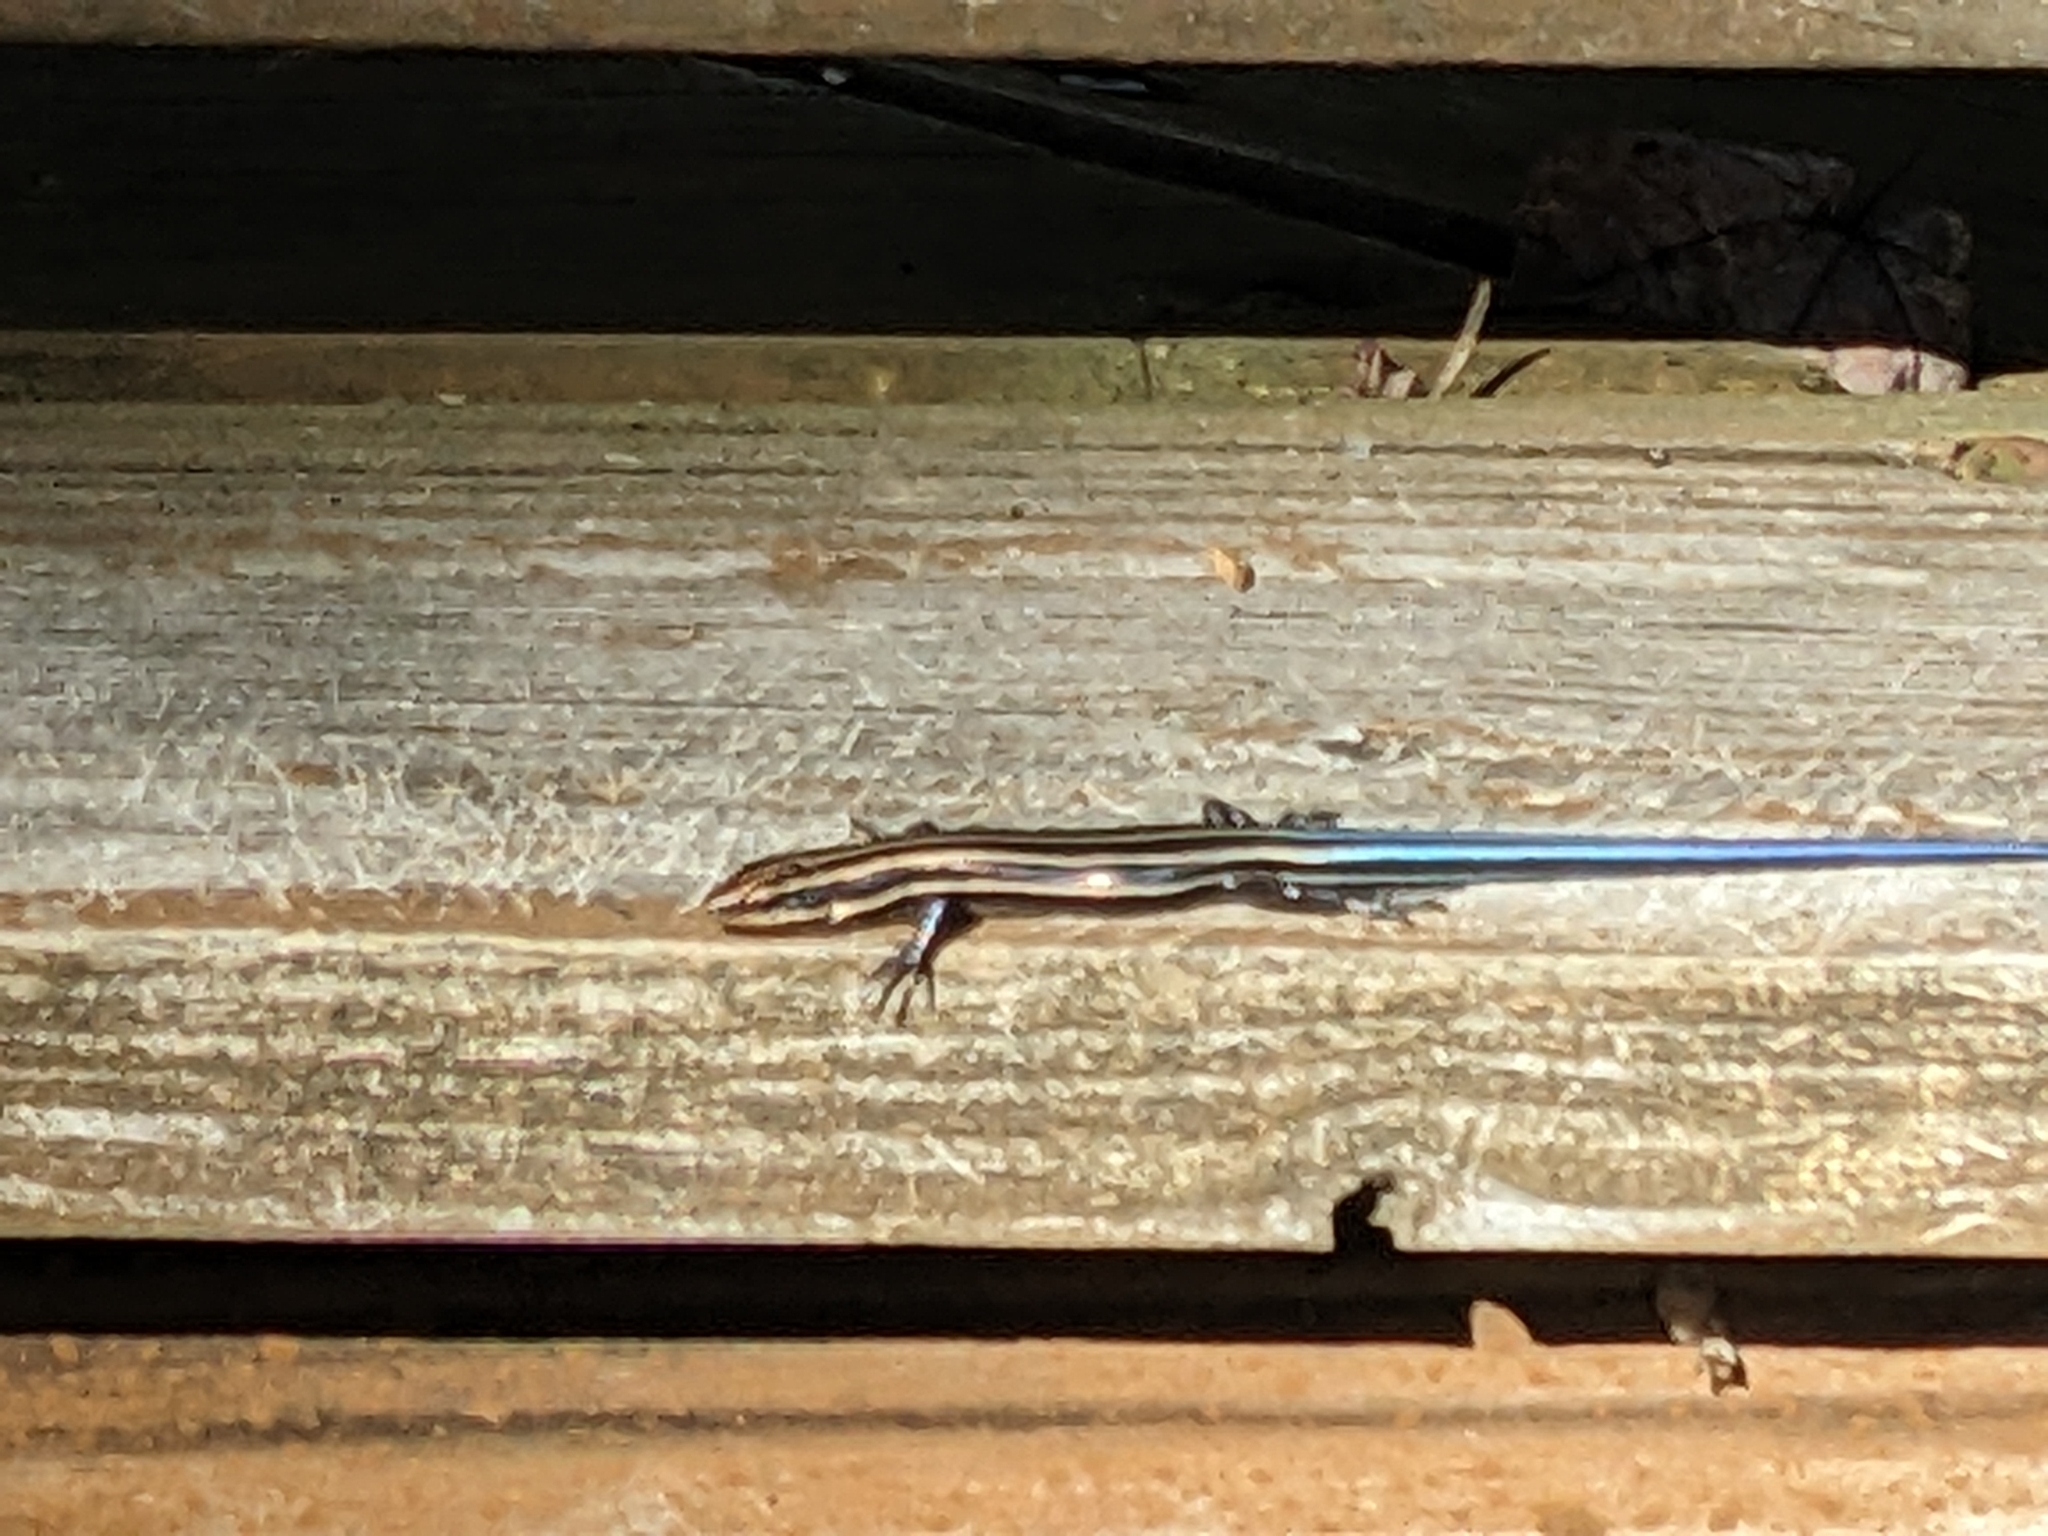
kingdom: Animalia
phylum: Chordata
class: Squamata
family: Scincidae
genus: Plestiodon
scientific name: Plestiodon fasciatus
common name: Five-lined skink
